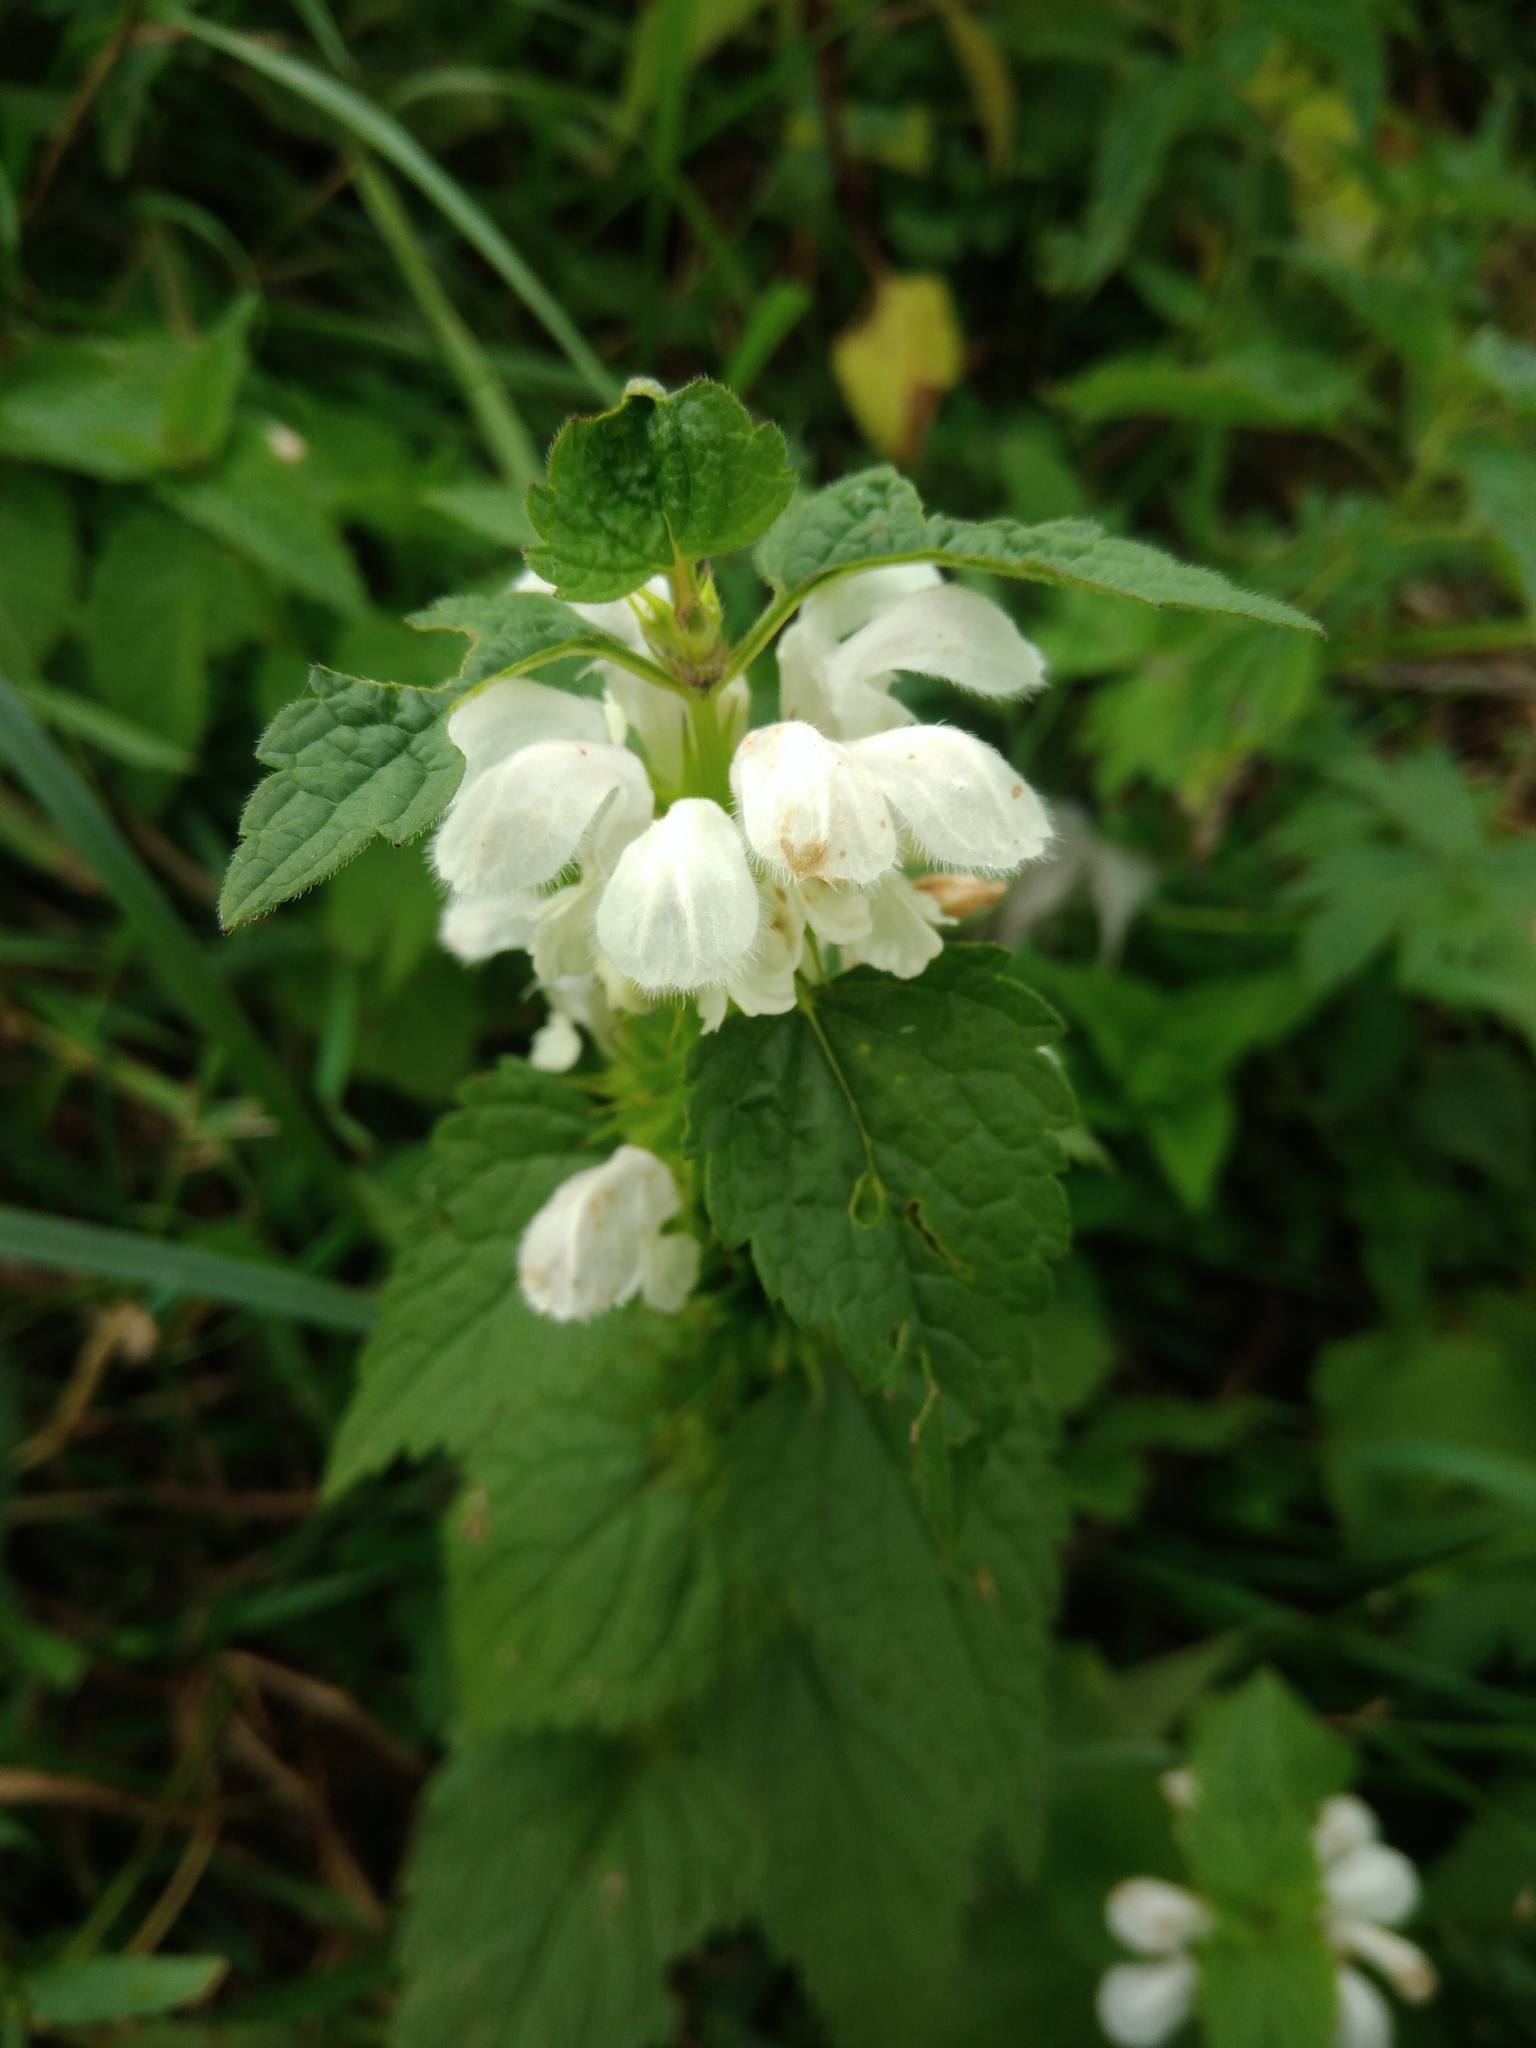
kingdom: Plantae
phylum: Tracheophyta
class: Magnoliopsida
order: Lamiales
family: Lamiaceae
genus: Lamium
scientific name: Lamium album
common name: White dead-nettle
